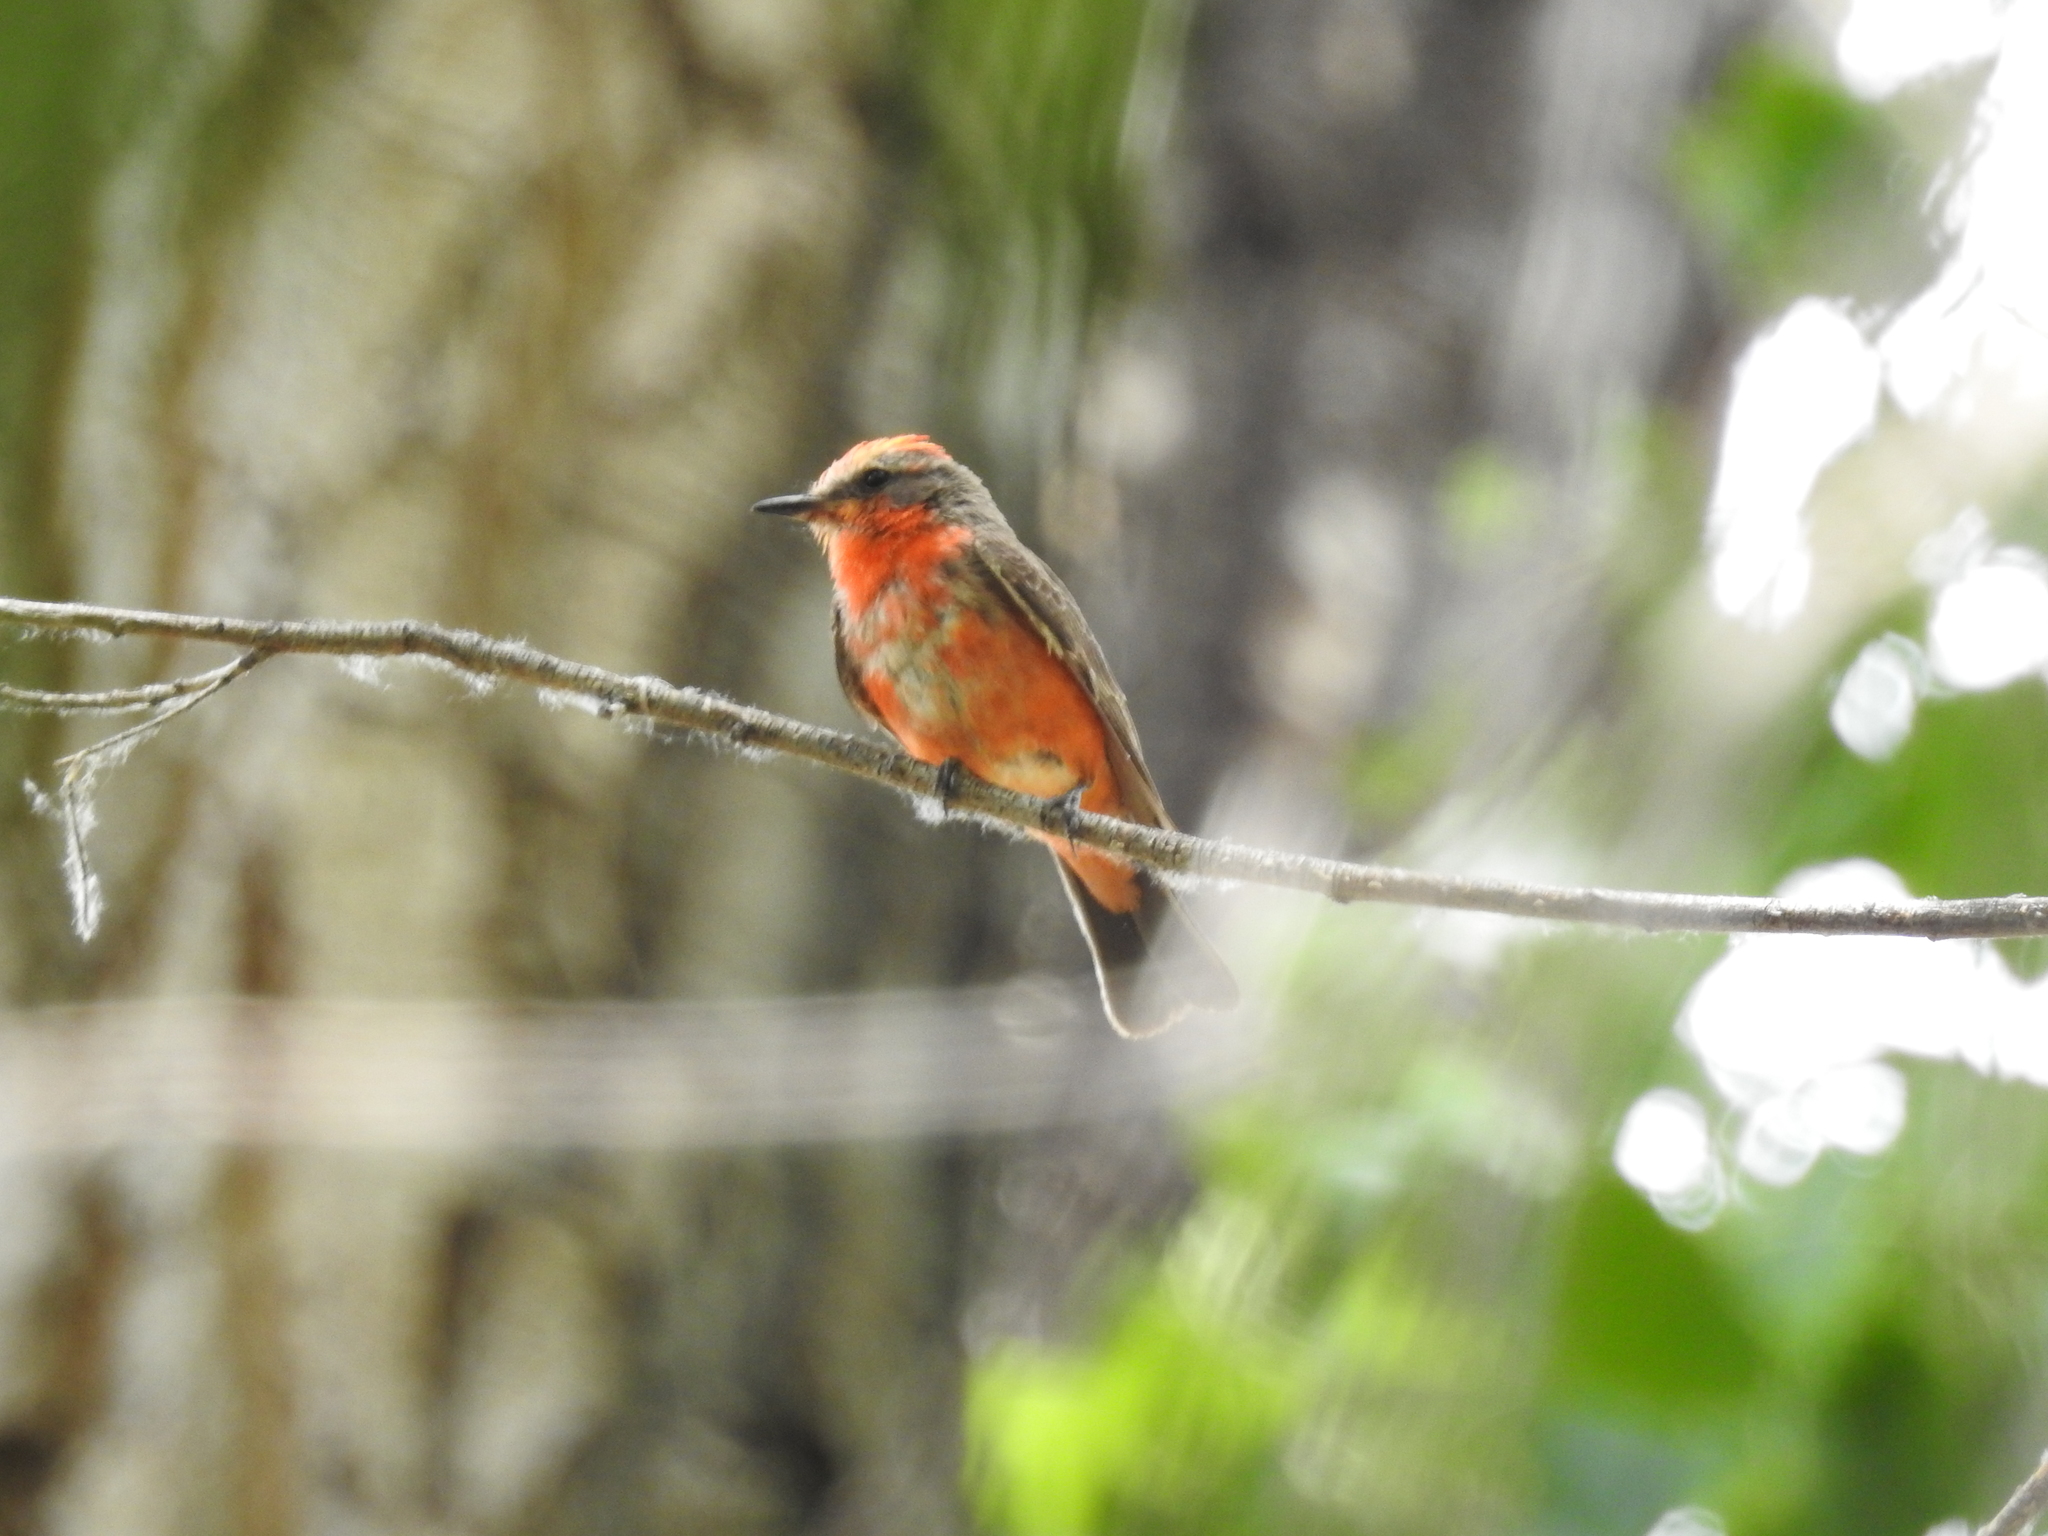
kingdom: Animalia
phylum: Chordata
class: Aves
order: Passeriformes
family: Tyrannidae
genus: Pyrocephalus
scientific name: Pyrocephalus rubinus
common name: Vermilion flycatcher
